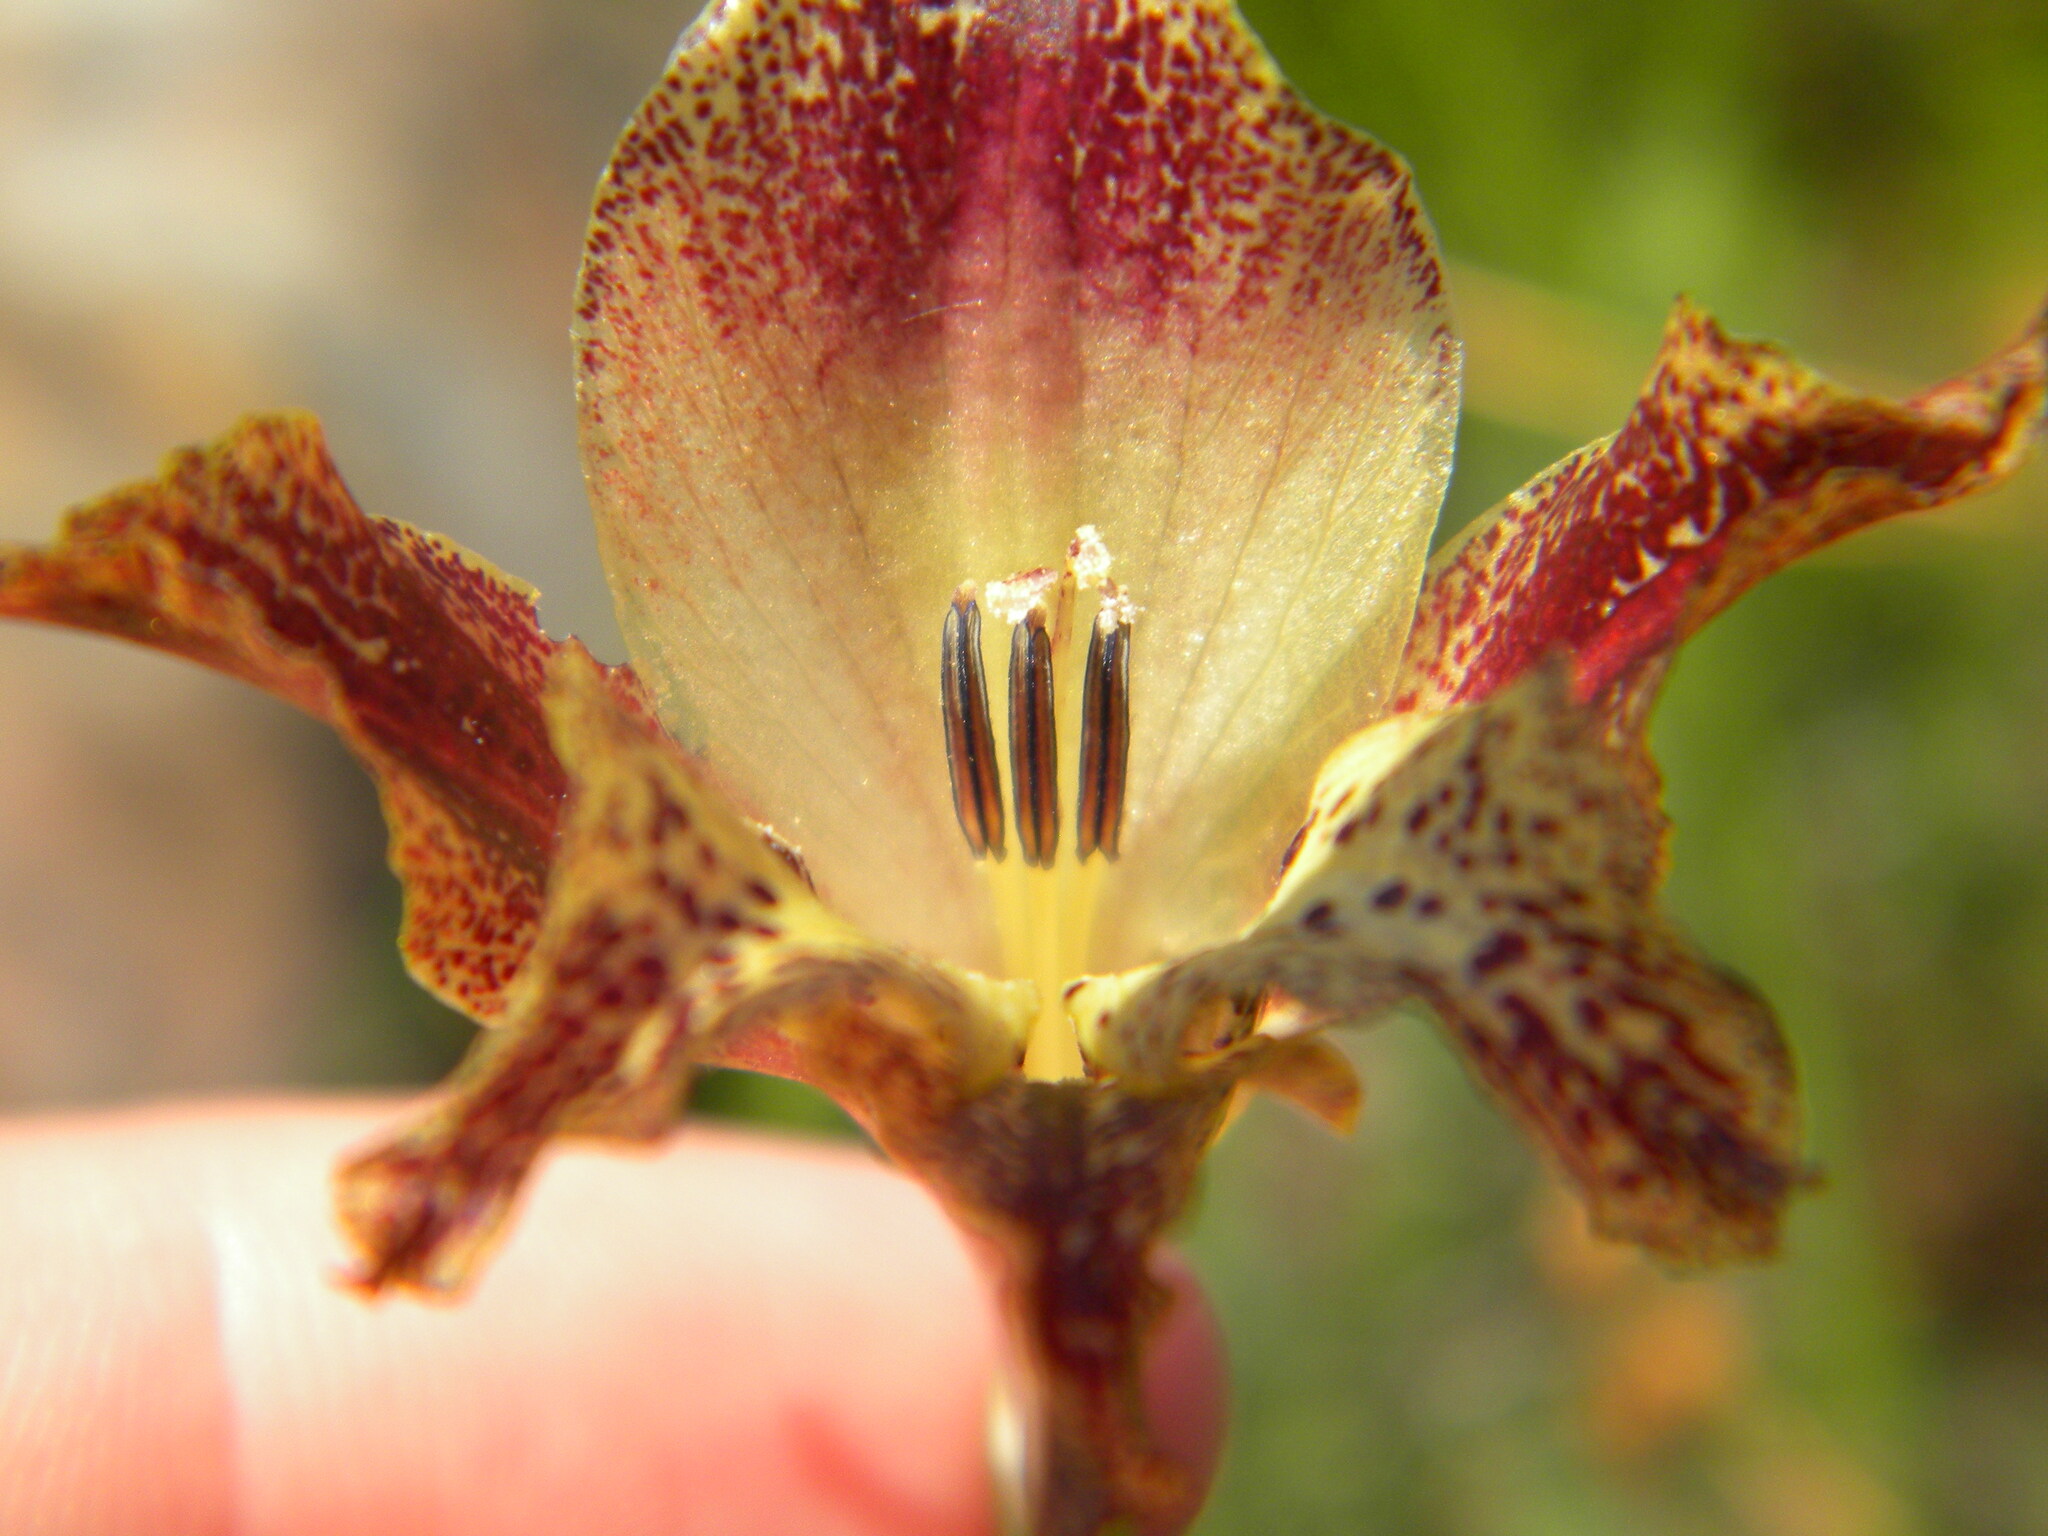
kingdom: Plantae
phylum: Tracheophyta
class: Liliopsida
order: Asparagales
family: Iridaceae
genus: Gladiolus
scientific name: Gladiolus maculatus
